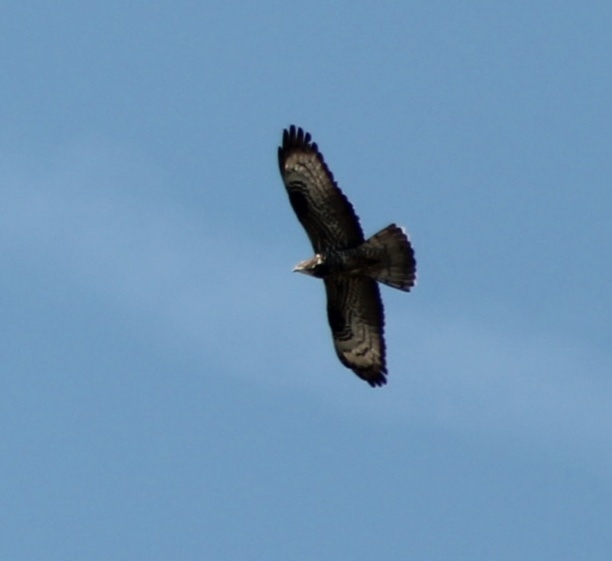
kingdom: Animalia
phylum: Chordata
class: Aves
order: Accipitriformes
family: Accipitridae
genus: Pernis
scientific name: Pernis apivorus
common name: European honey buzzard
